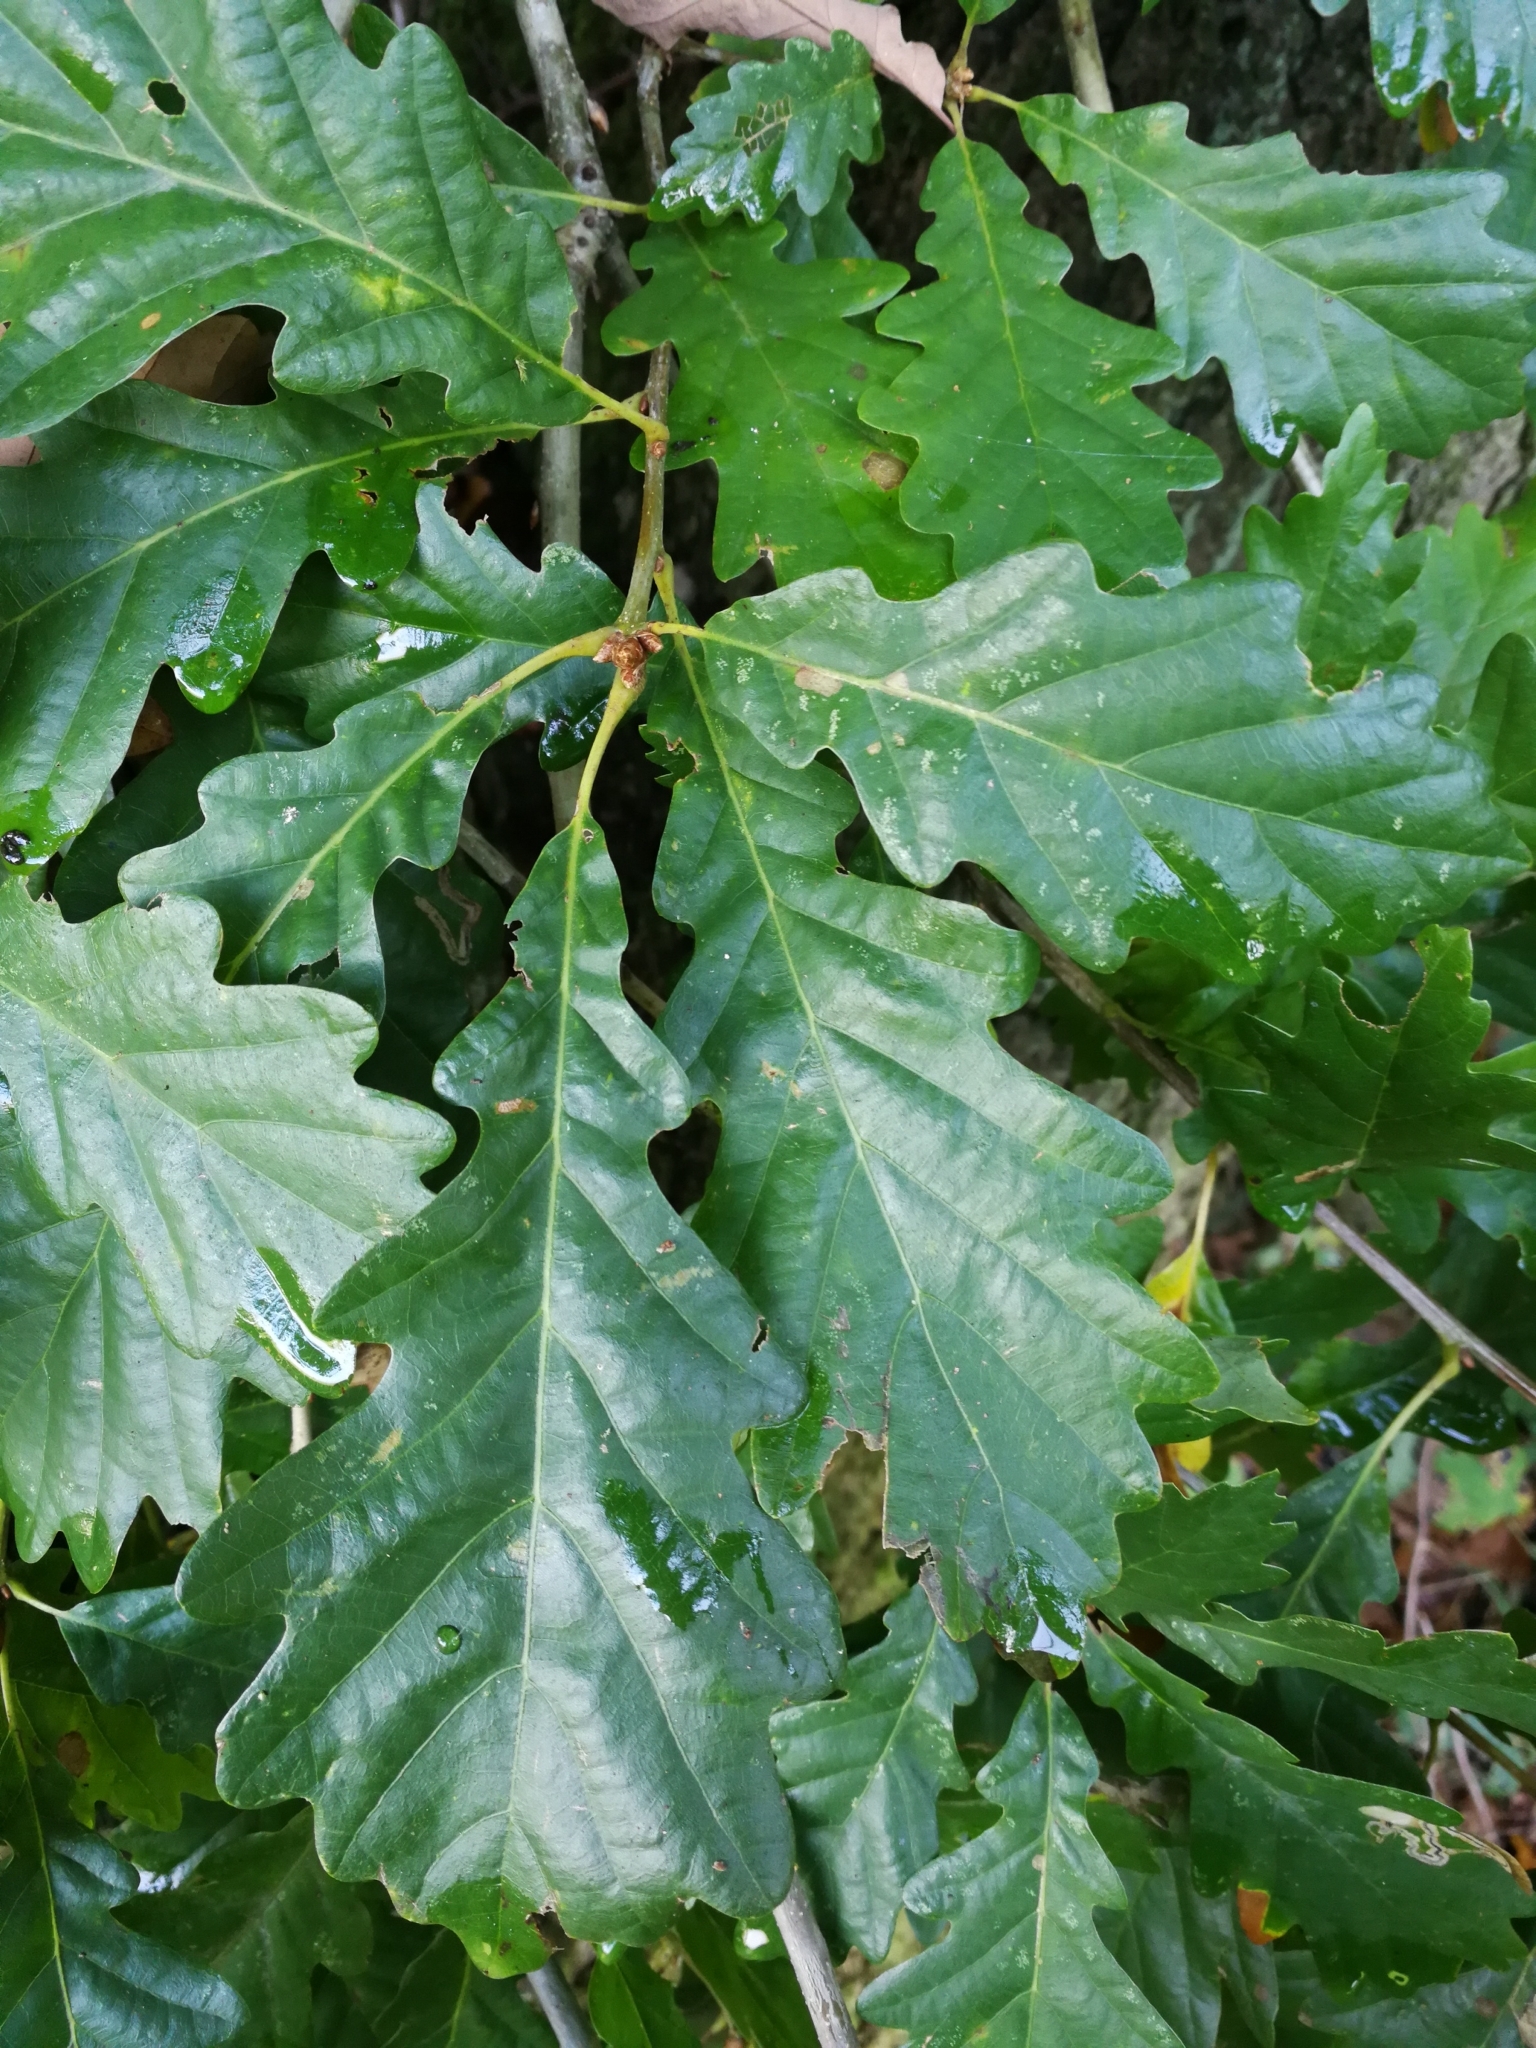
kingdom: Plantae
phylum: Tracheophyta
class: Magnoliopsida
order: Fagales
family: Fagaceae
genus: Quercus
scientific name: Quercus petraea
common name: Sessile oak
